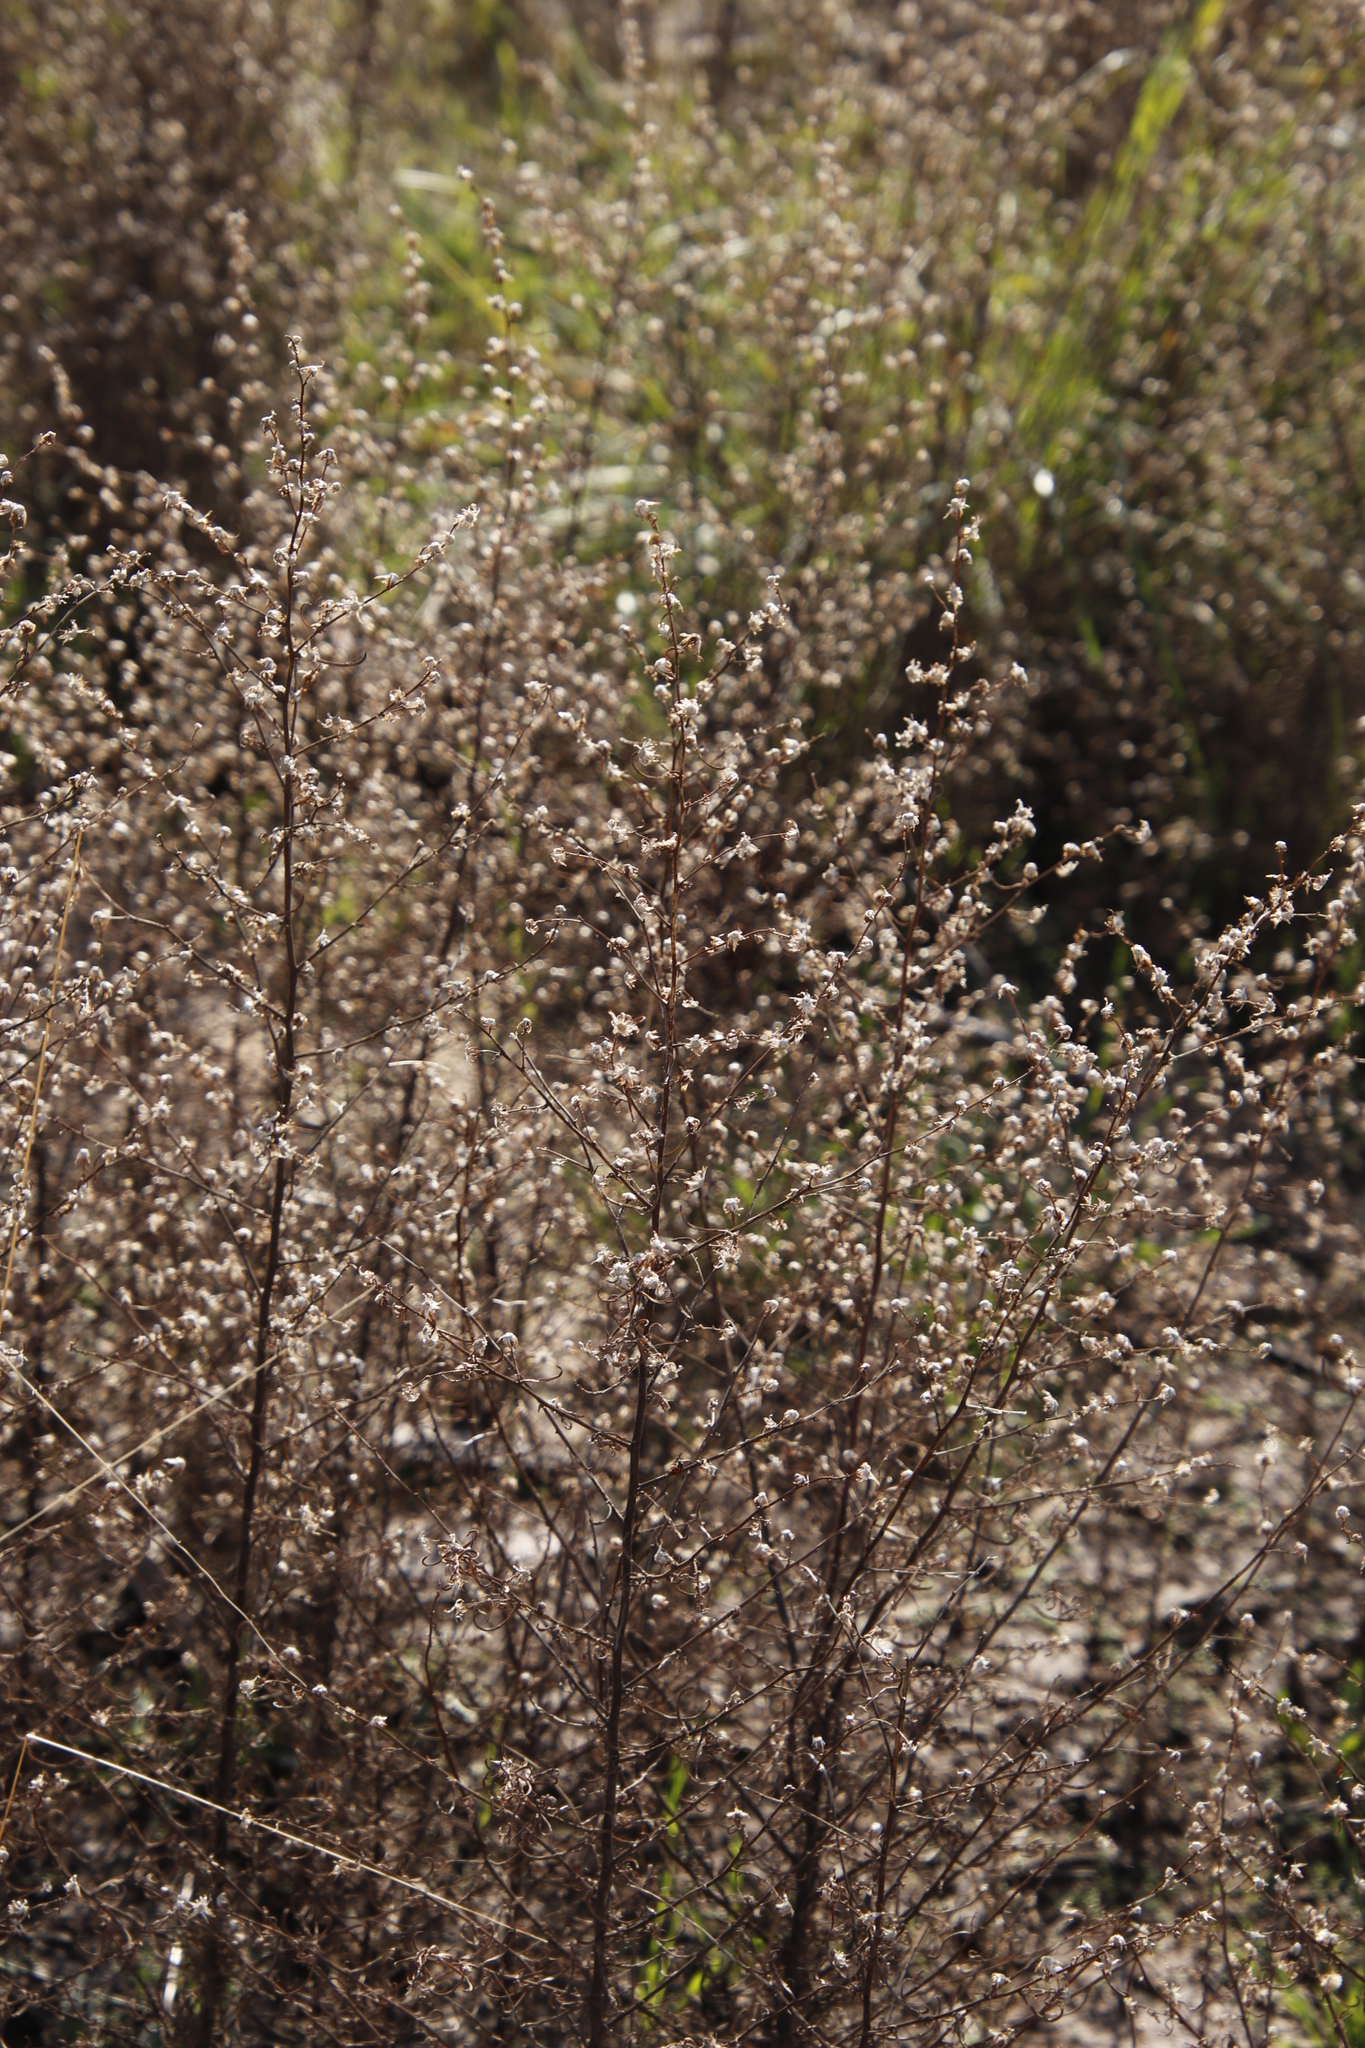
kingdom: Plantae
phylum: Tracheophyta
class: Magnoliopsida
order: Asterales
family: Asteraceae
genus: Dittrichia
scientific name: Dittrichia graveolens
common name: Stinking fleabane
